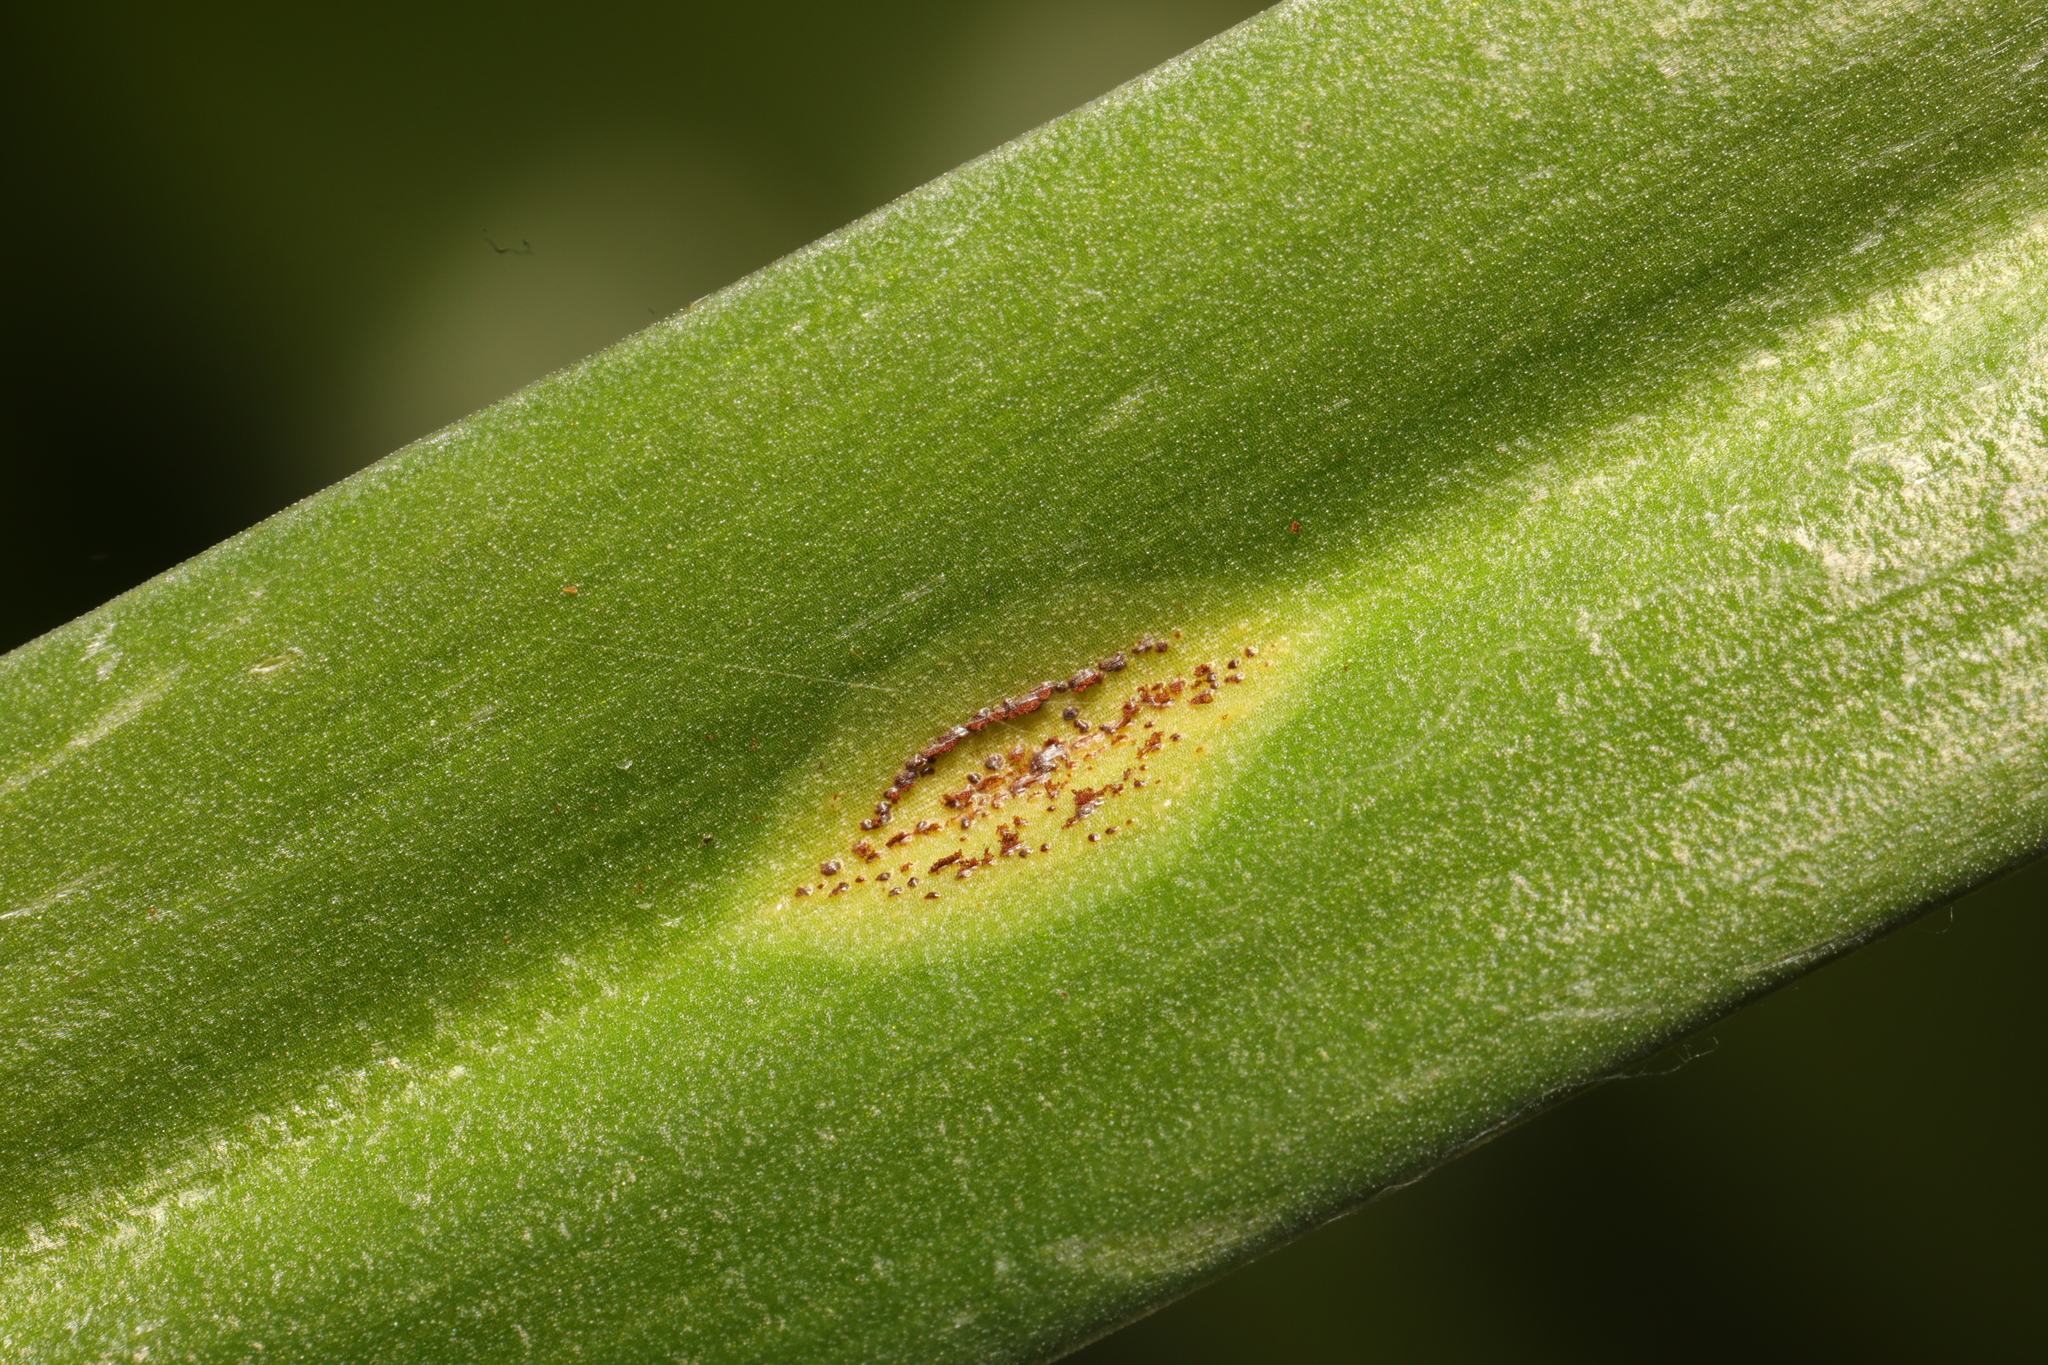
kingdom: Fungi
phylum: Basidiomycota
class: Pucciniomycetes
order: Pucciniales
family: Pucciniaceae
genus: Uromyces
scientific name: Uromyces hyacinthi
